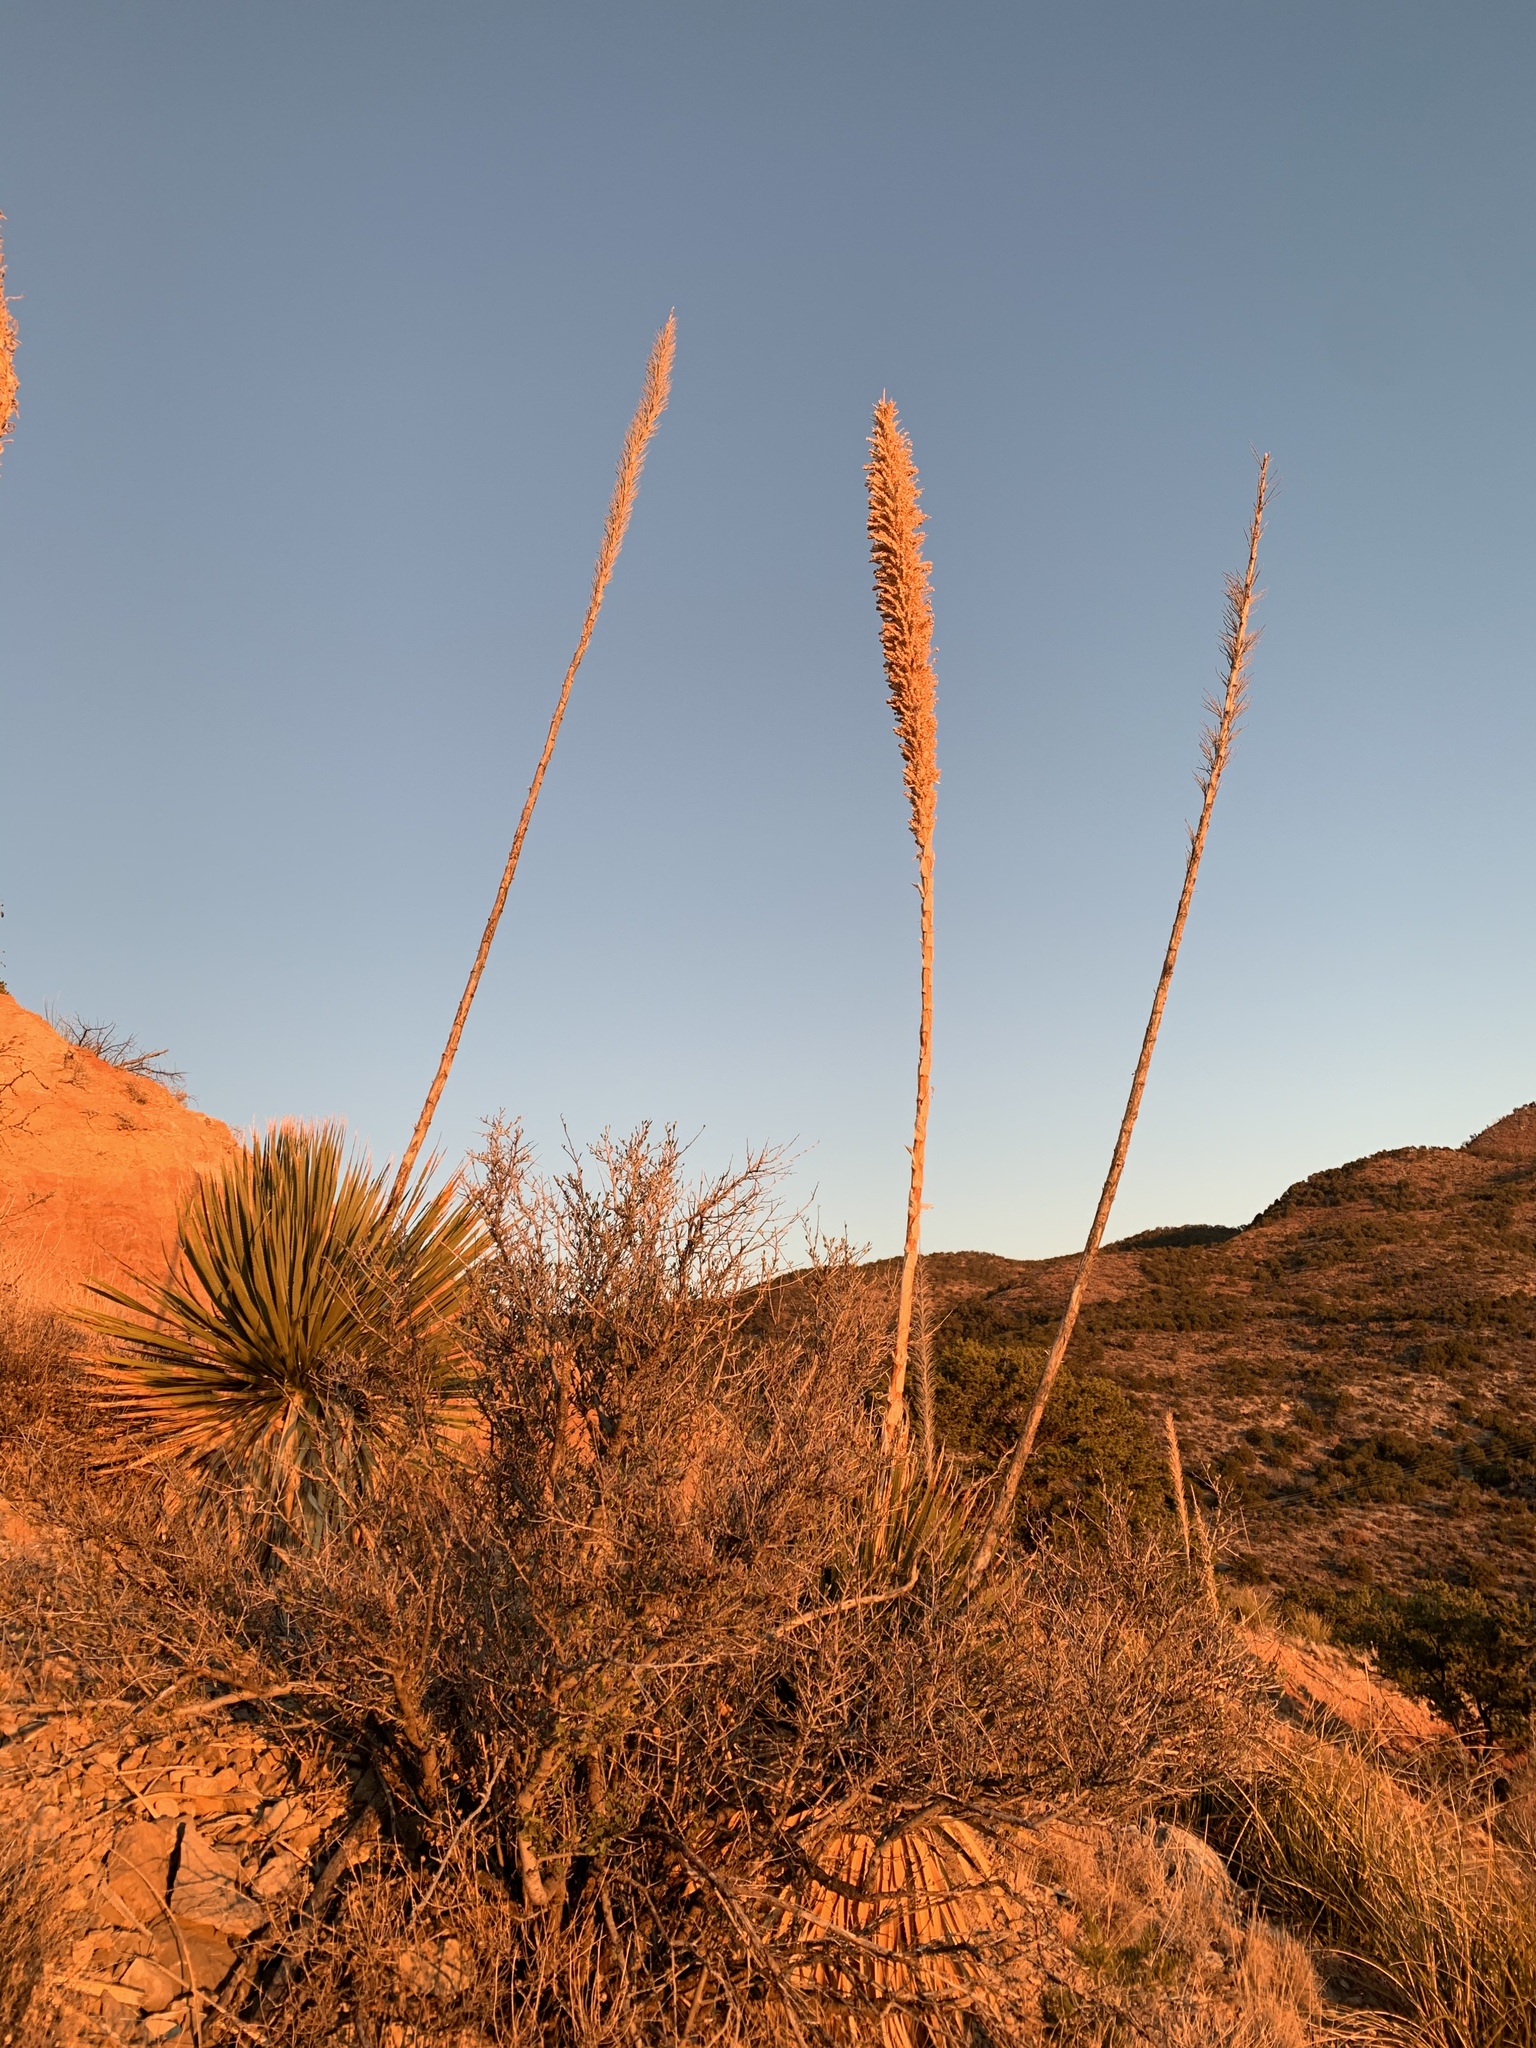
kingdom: Plantae
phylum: Tracheophyta
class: Liliopsida
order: Asparagales
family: Asparagaceae
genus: Dasylirion
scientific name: Dasylirion wheeleri
